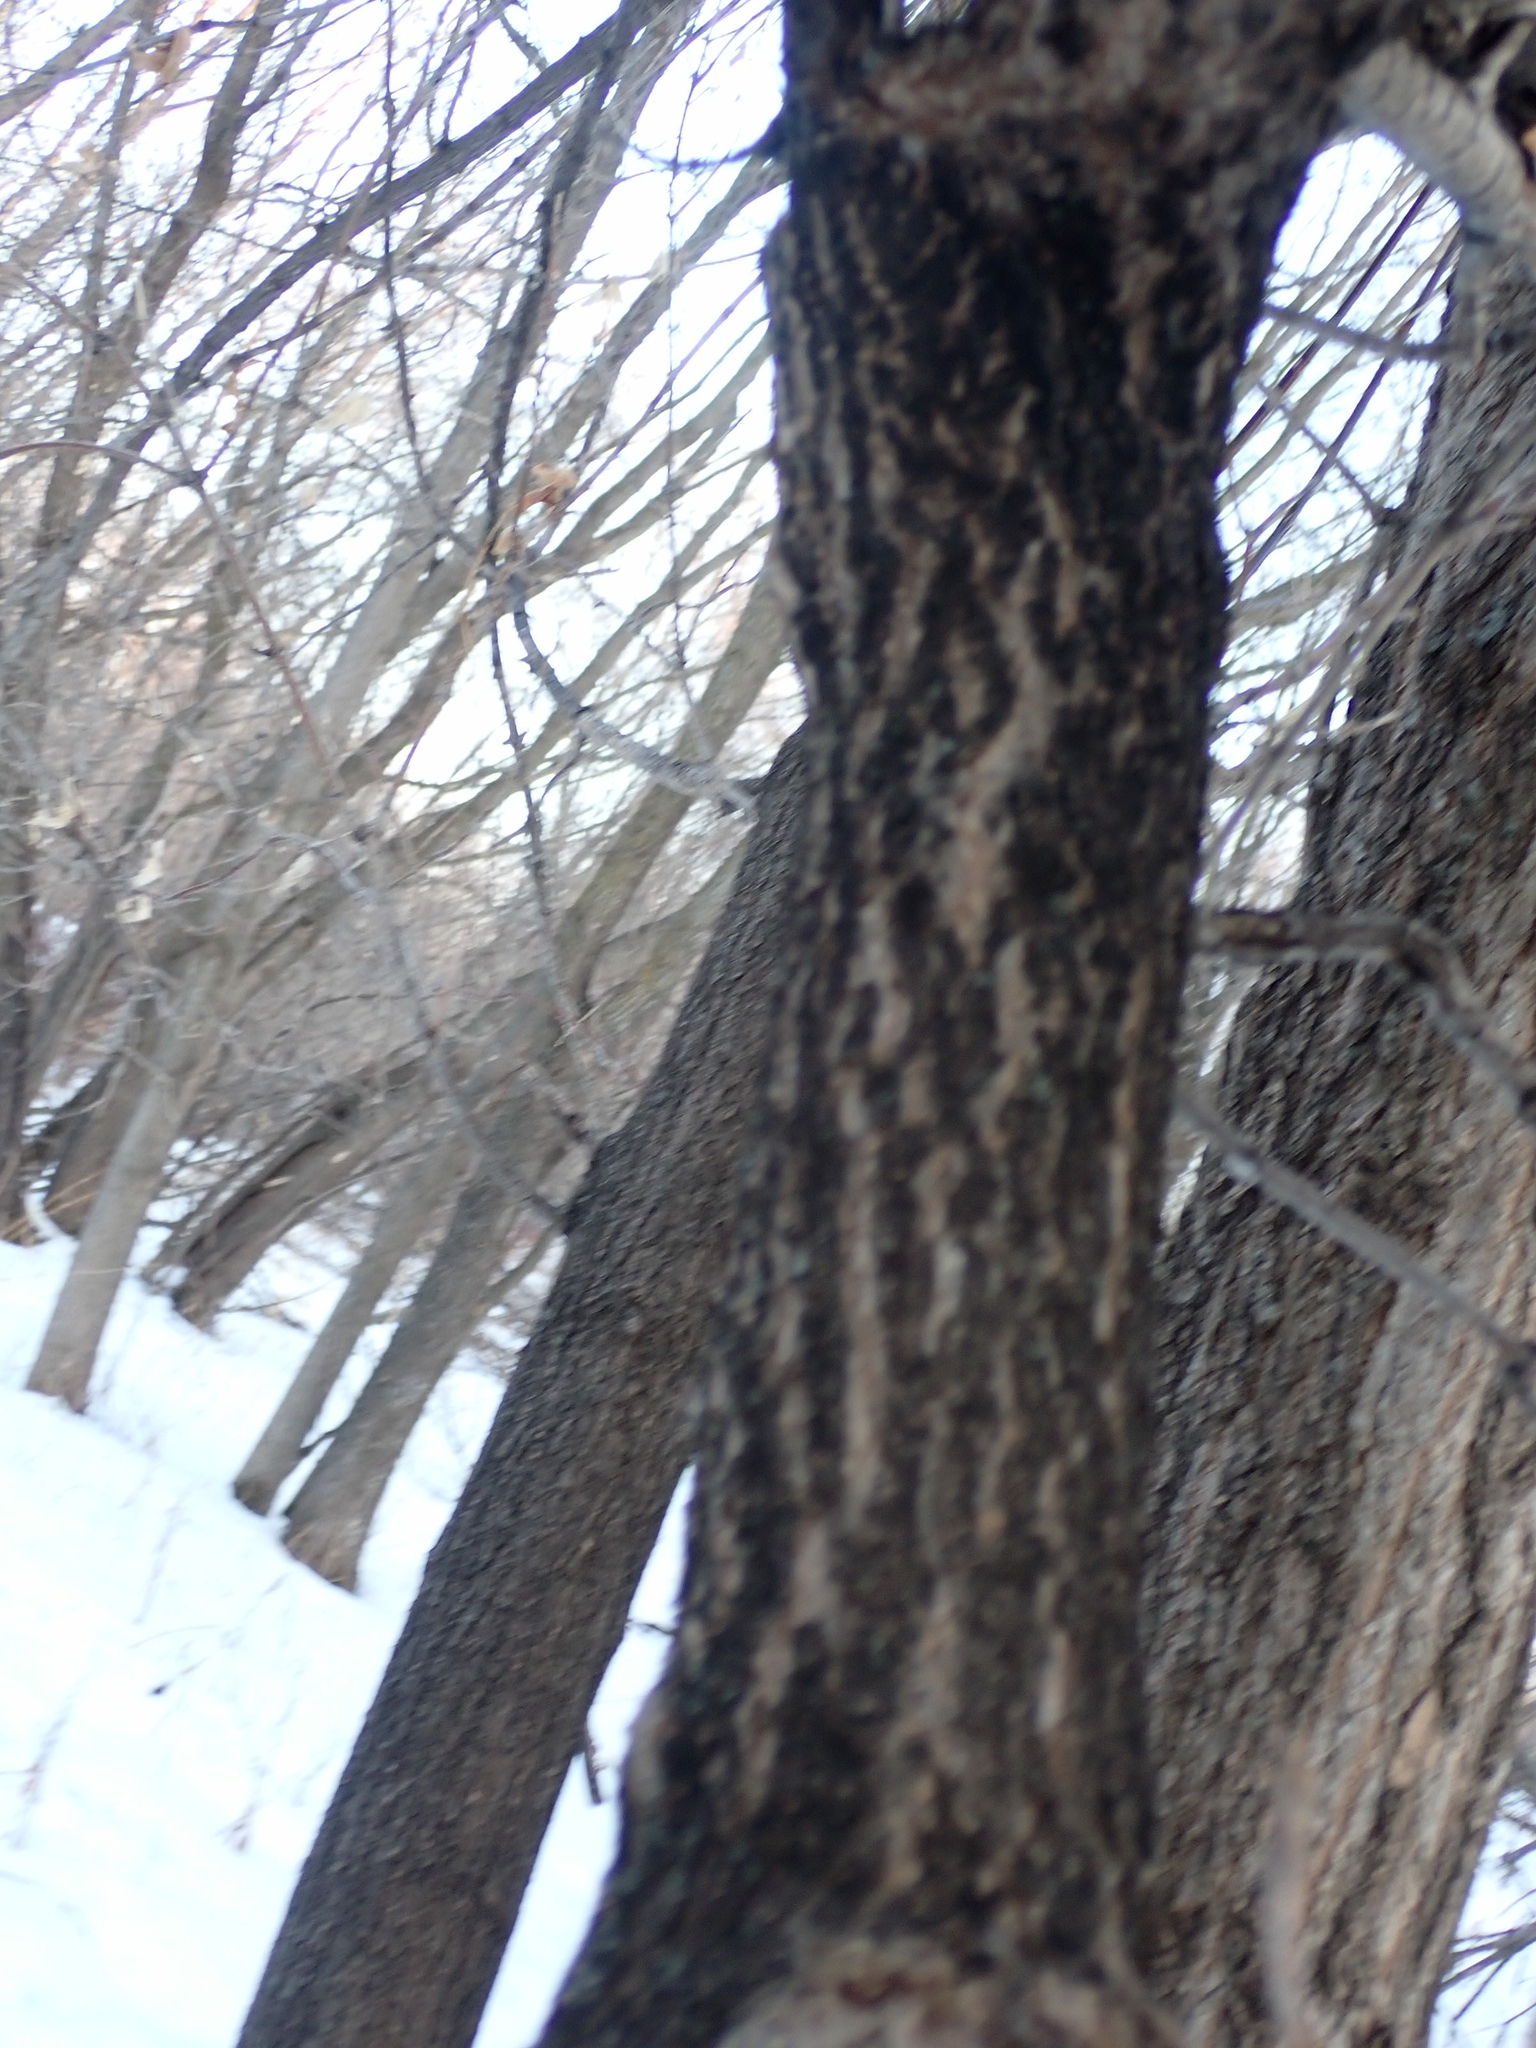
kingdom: Plantae
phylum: Tracheophyta
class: Magnoliopsida
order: Sapindales
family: Sapindaceae
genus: Acer
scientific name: Acer negundo
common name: Ashleaf maple
